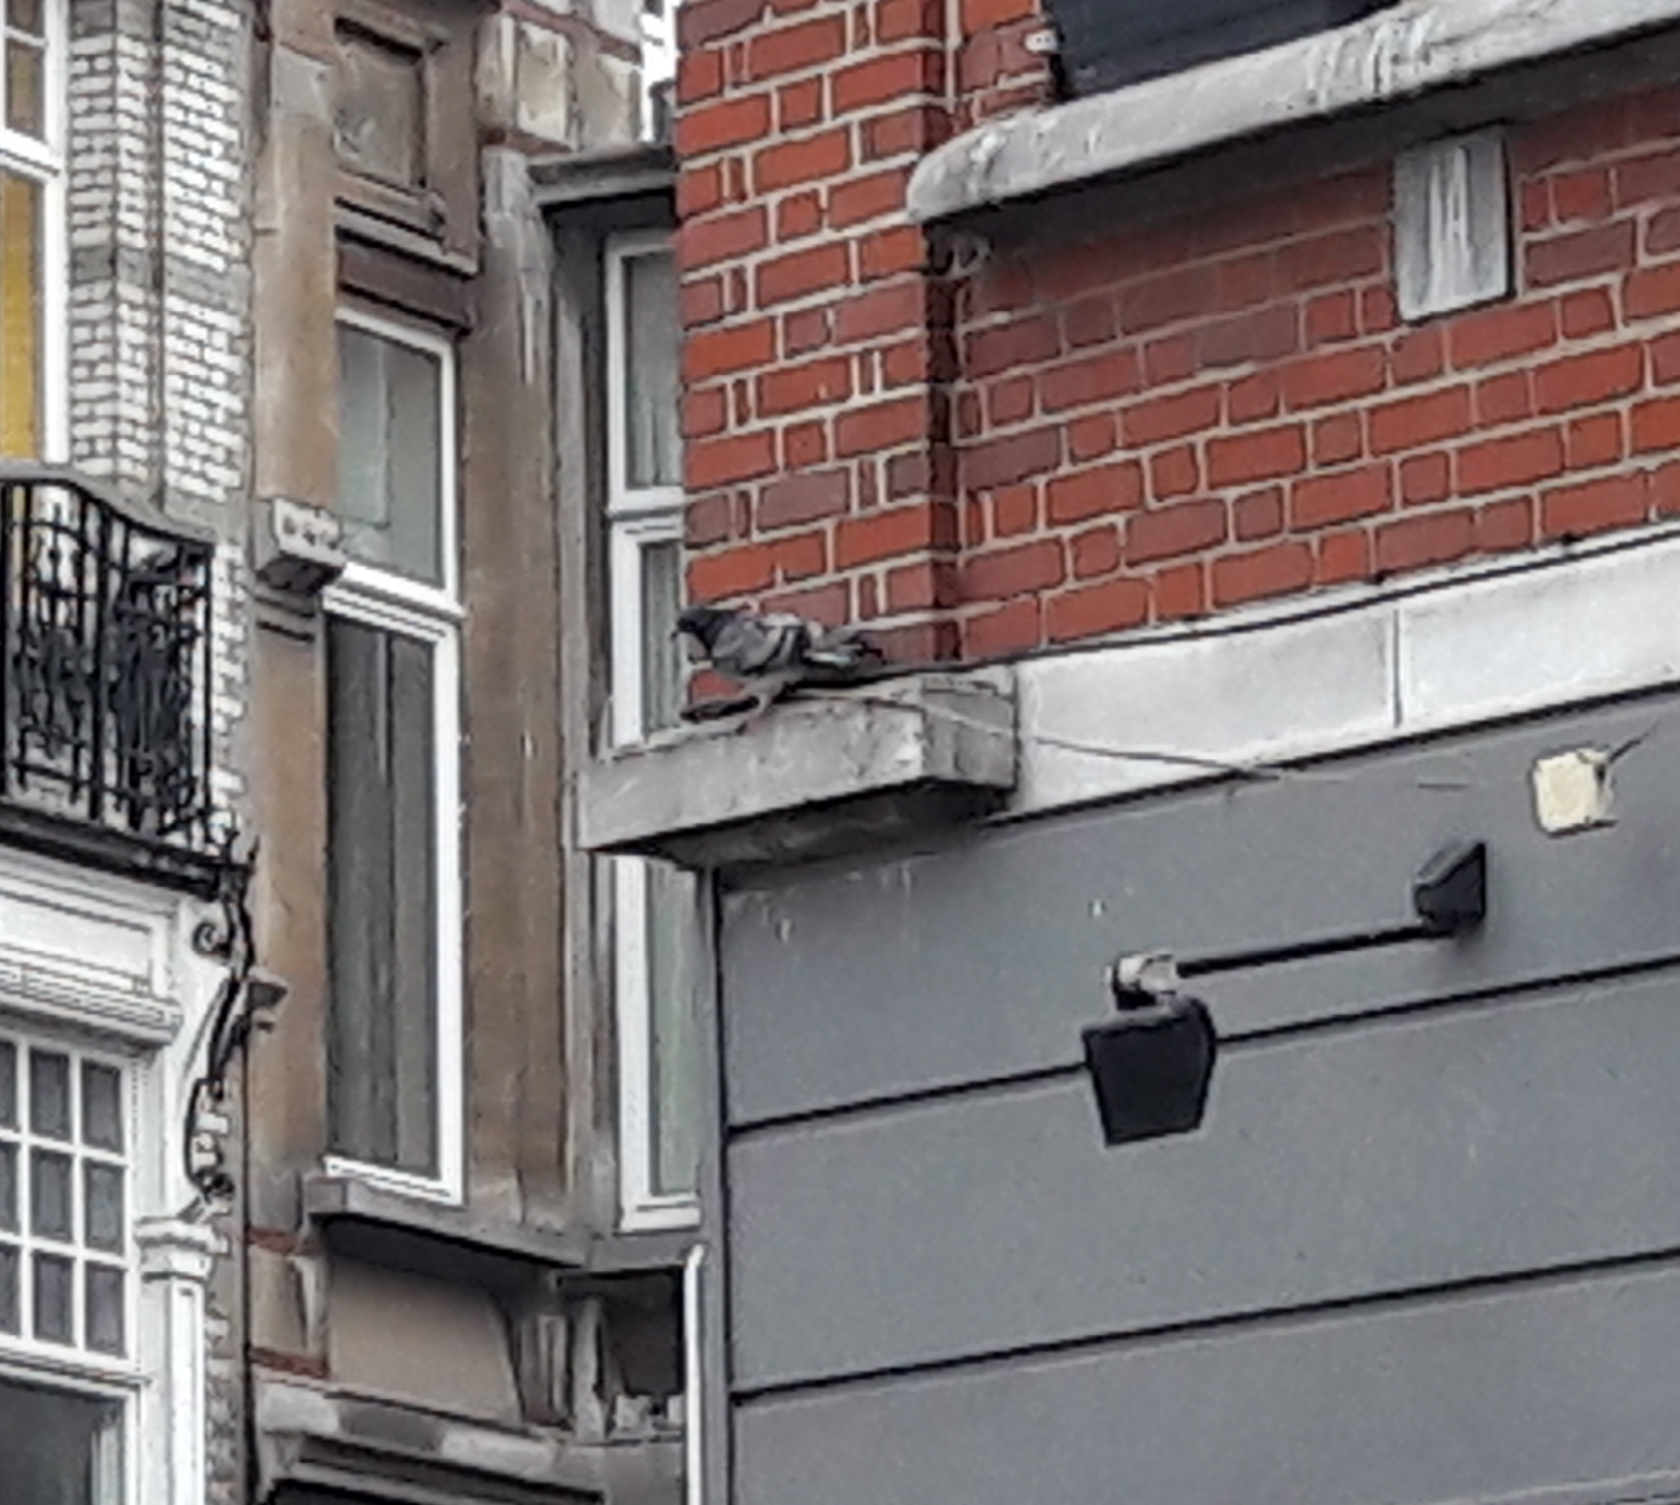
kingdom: Animalia
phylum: Chordata
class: Aves
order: Columbiformes
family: Columbidae
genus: Columba
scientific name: Columba livia
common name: Rock pigeon
